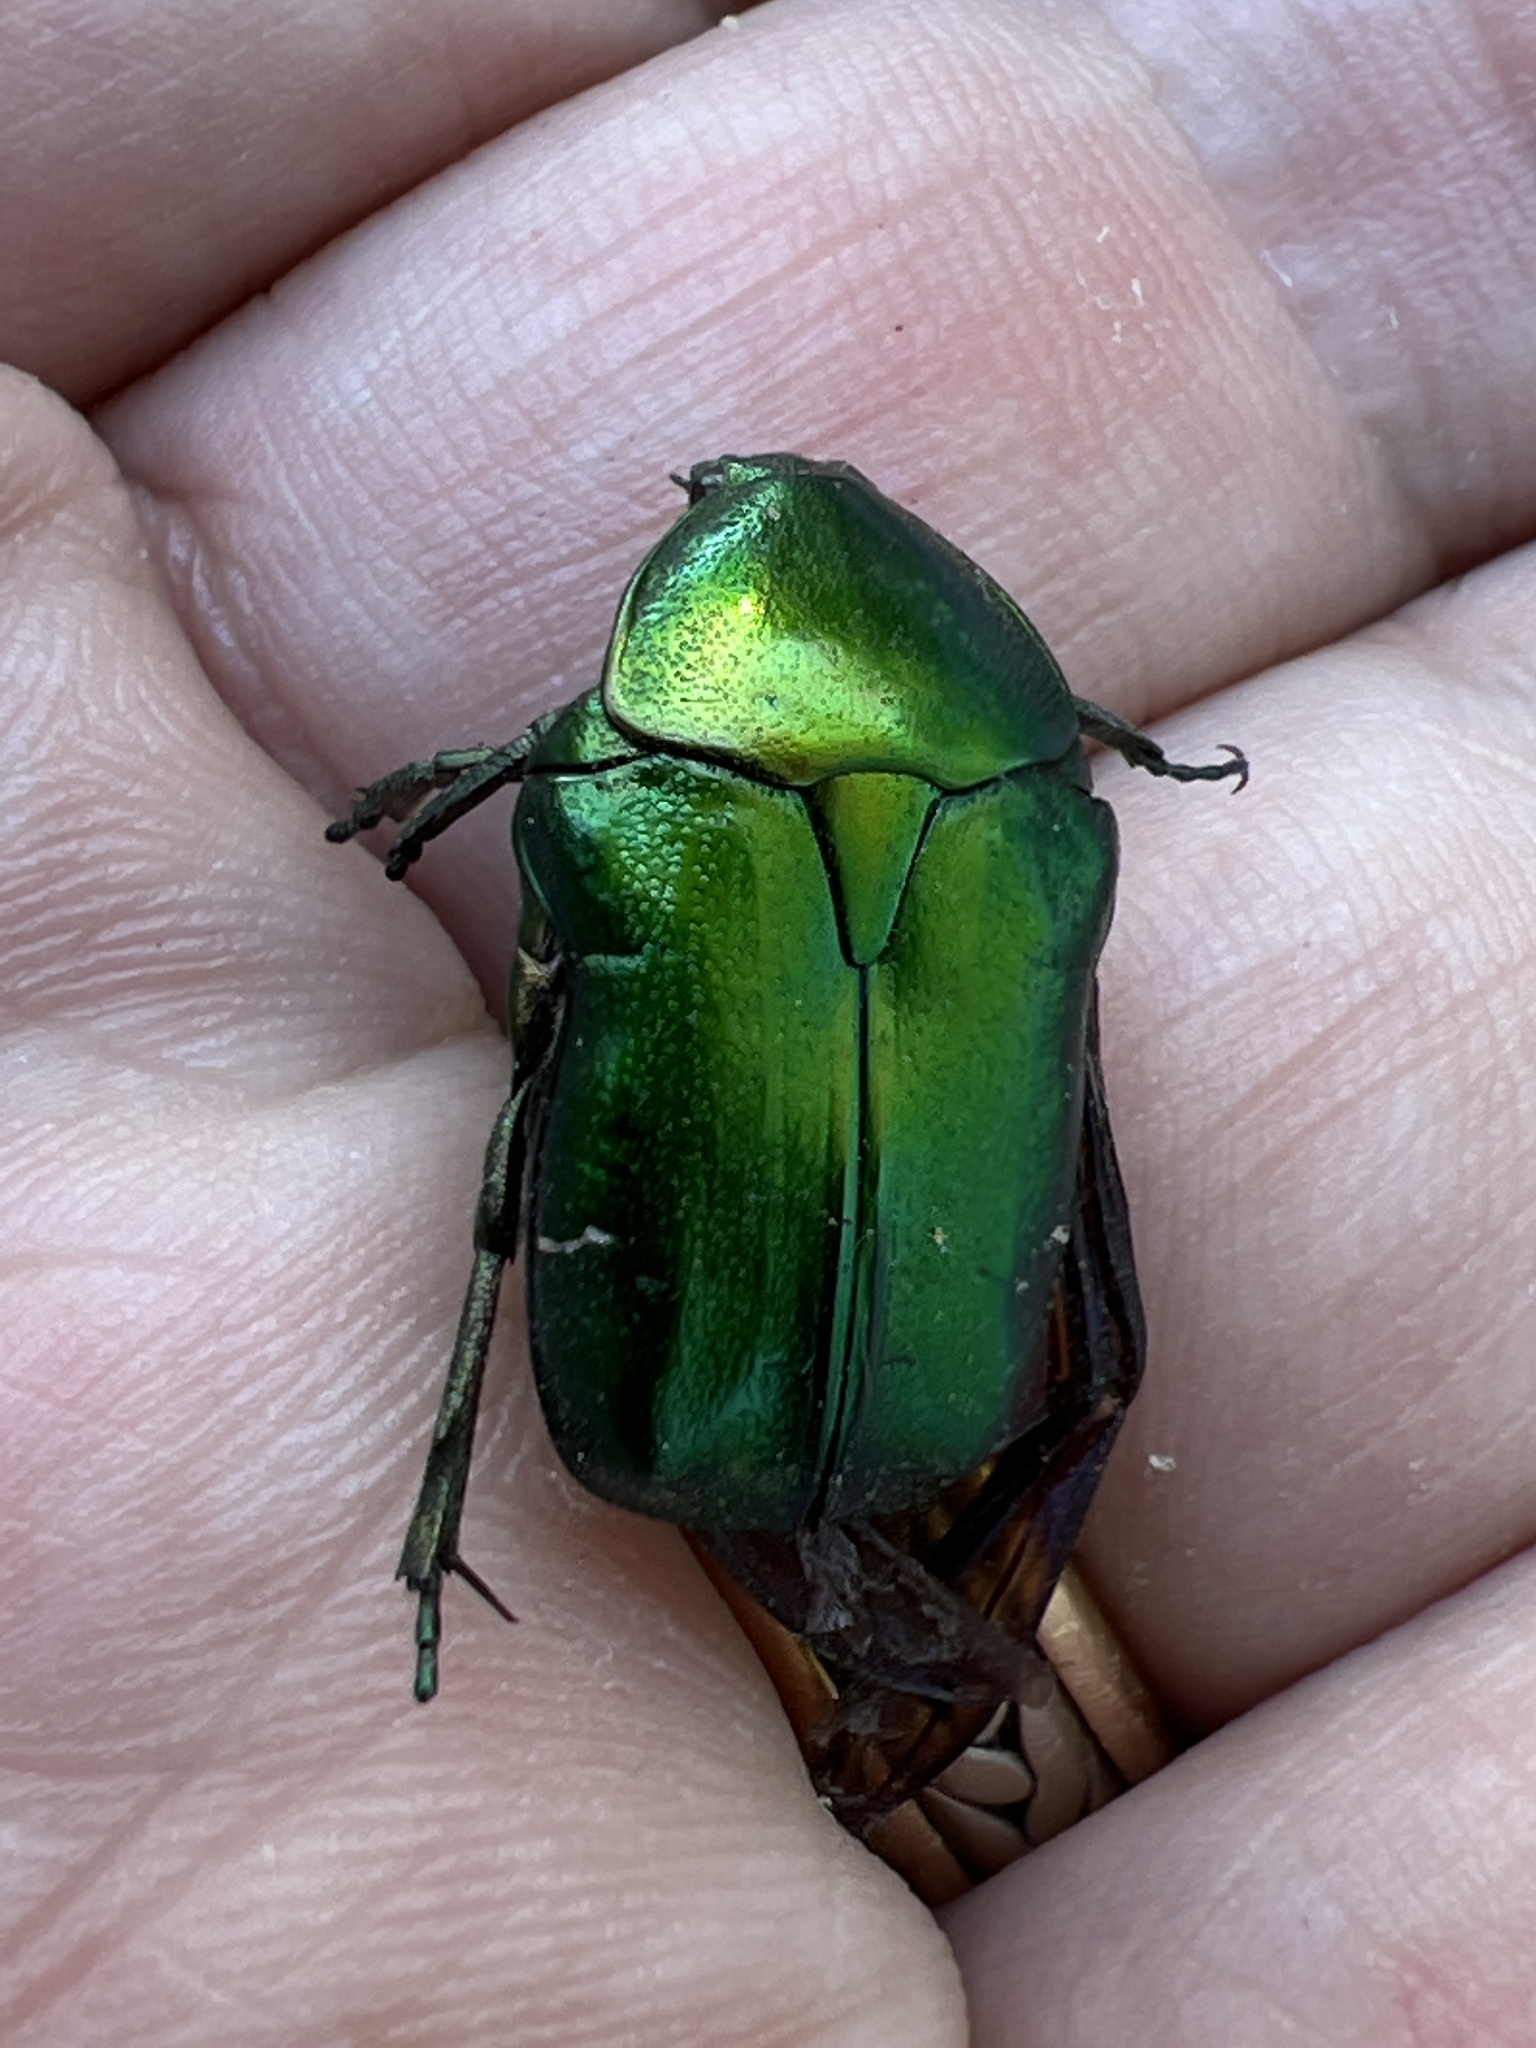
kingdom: Animalia
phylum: Arthropoda
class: Insecta
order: Coleoptera
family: Scarabaeidae
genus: Cetonia
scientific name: Cetonia aurata
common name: Rose chafer
